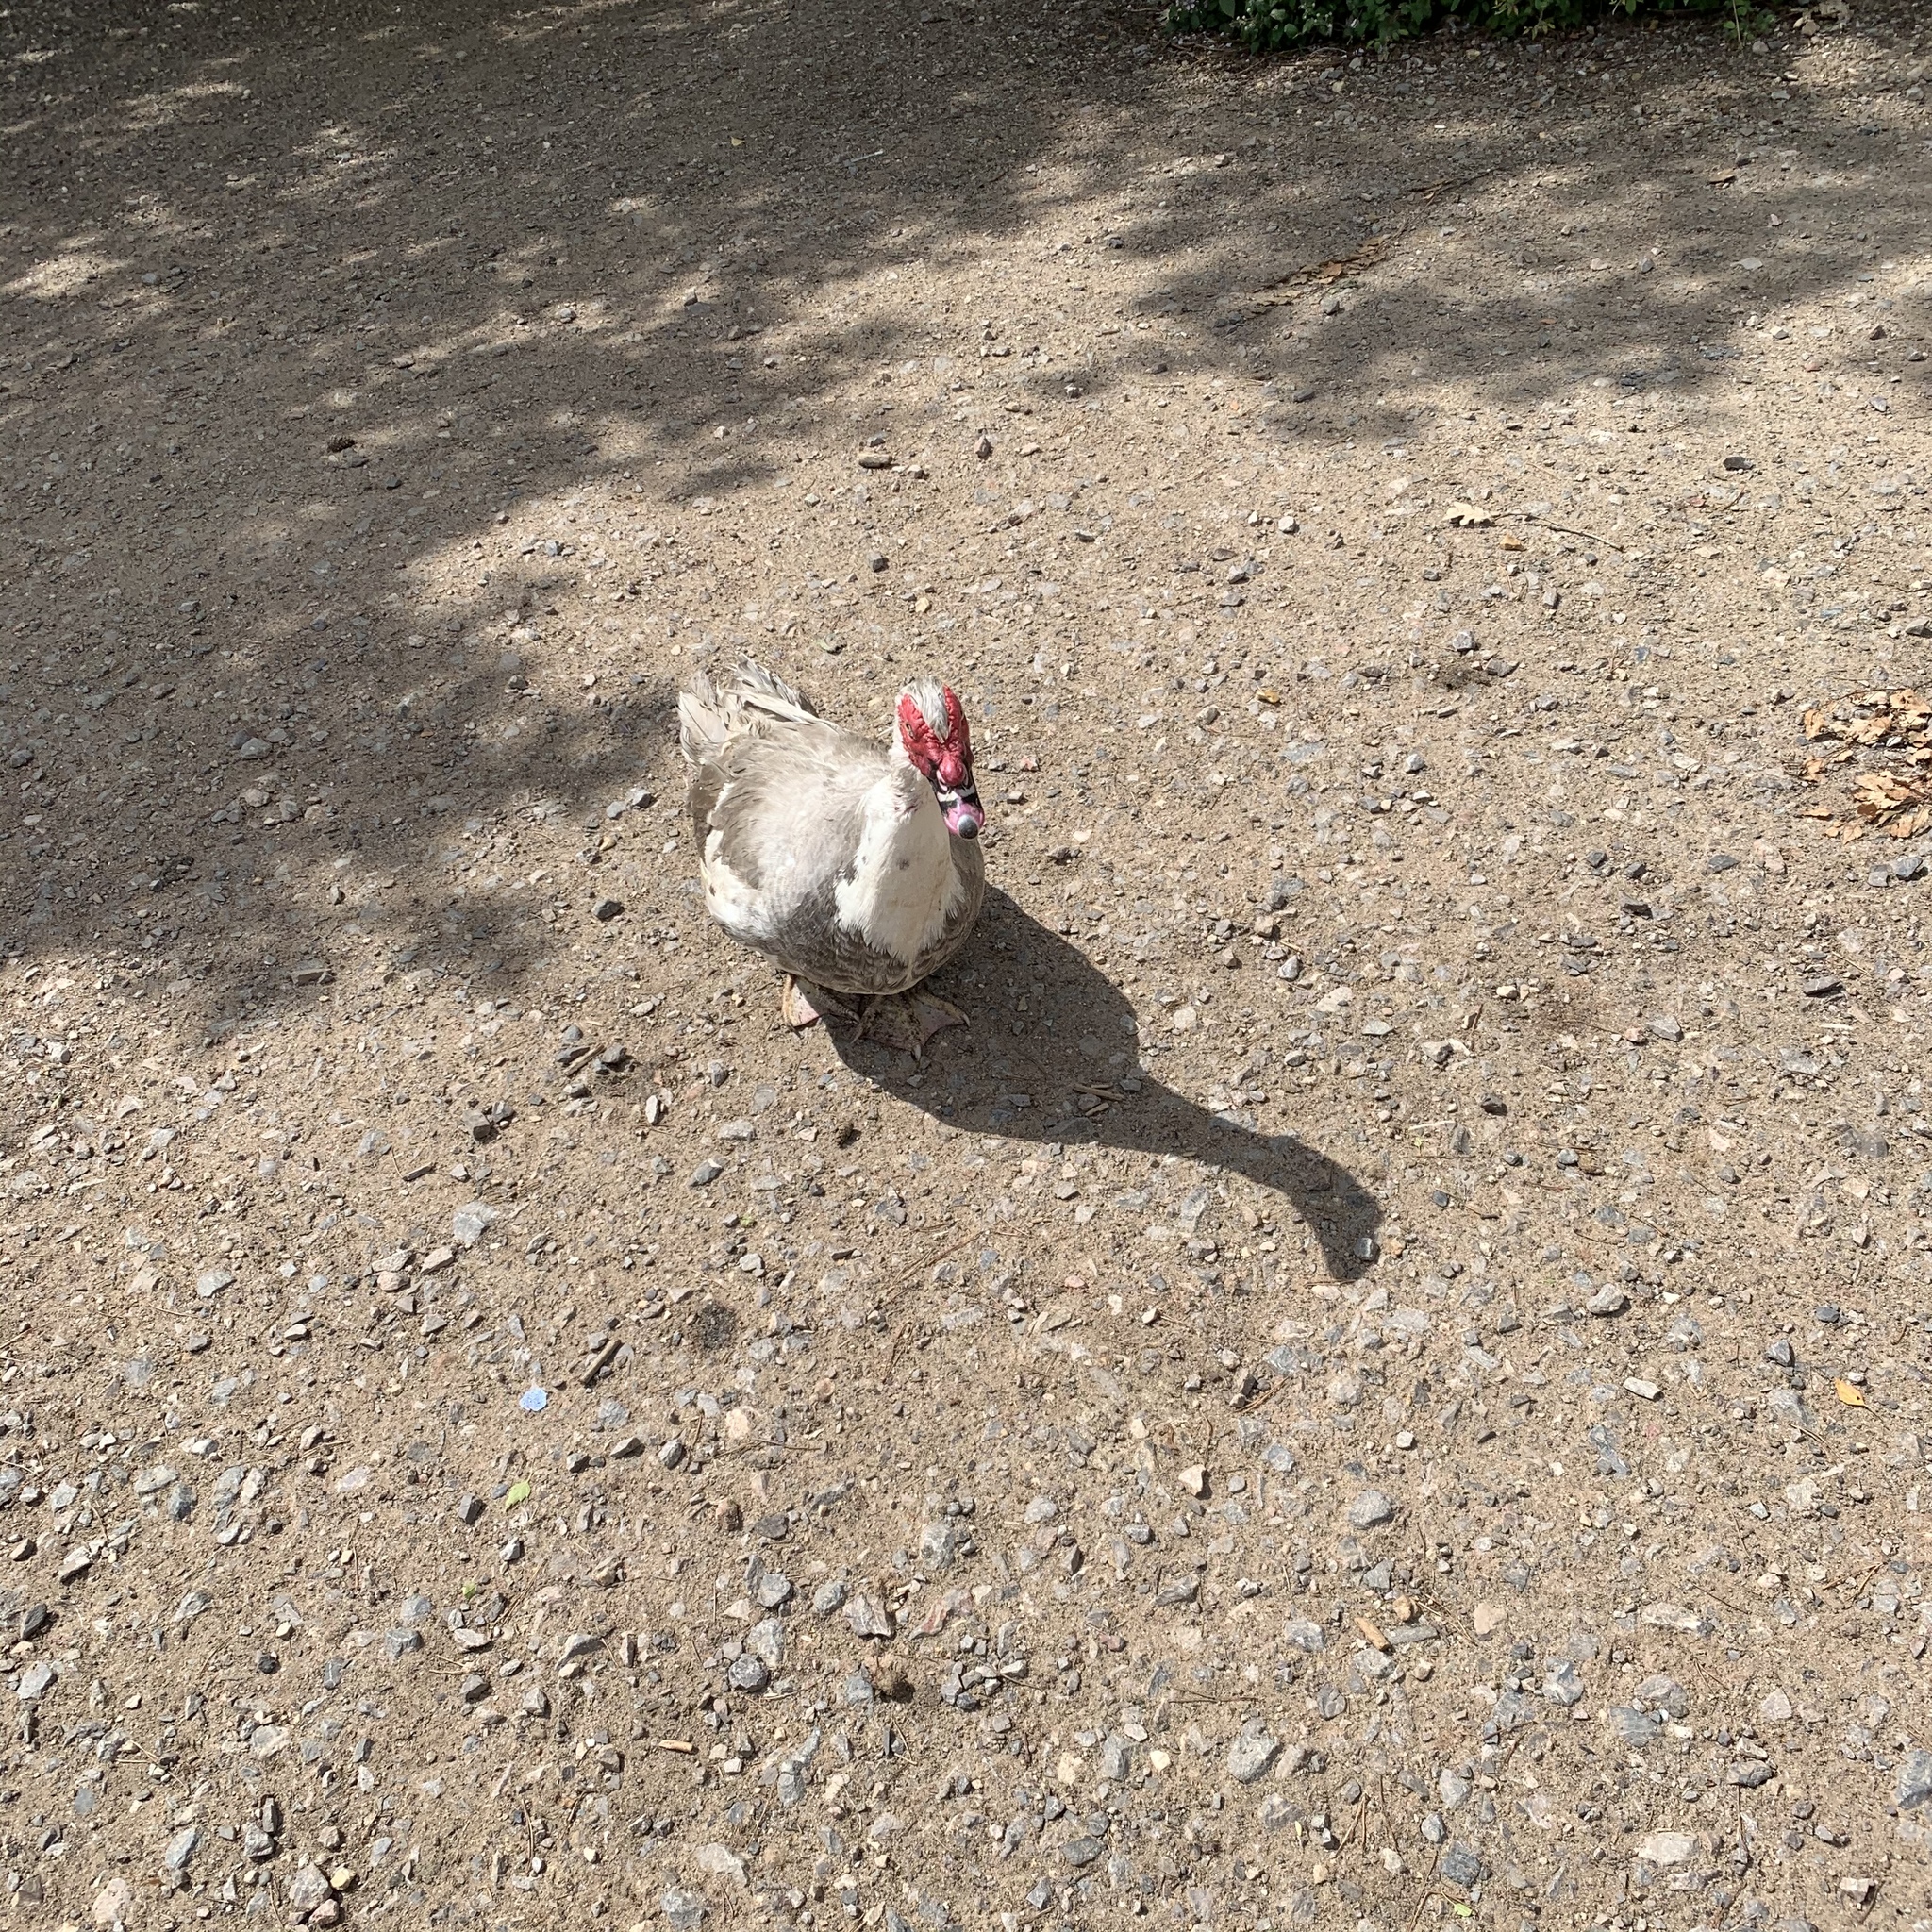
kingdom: Animalia
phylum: Chordata
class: Aves
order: Anseriformes
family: Anatidae
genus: Cairina
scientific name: Cairina moschata
